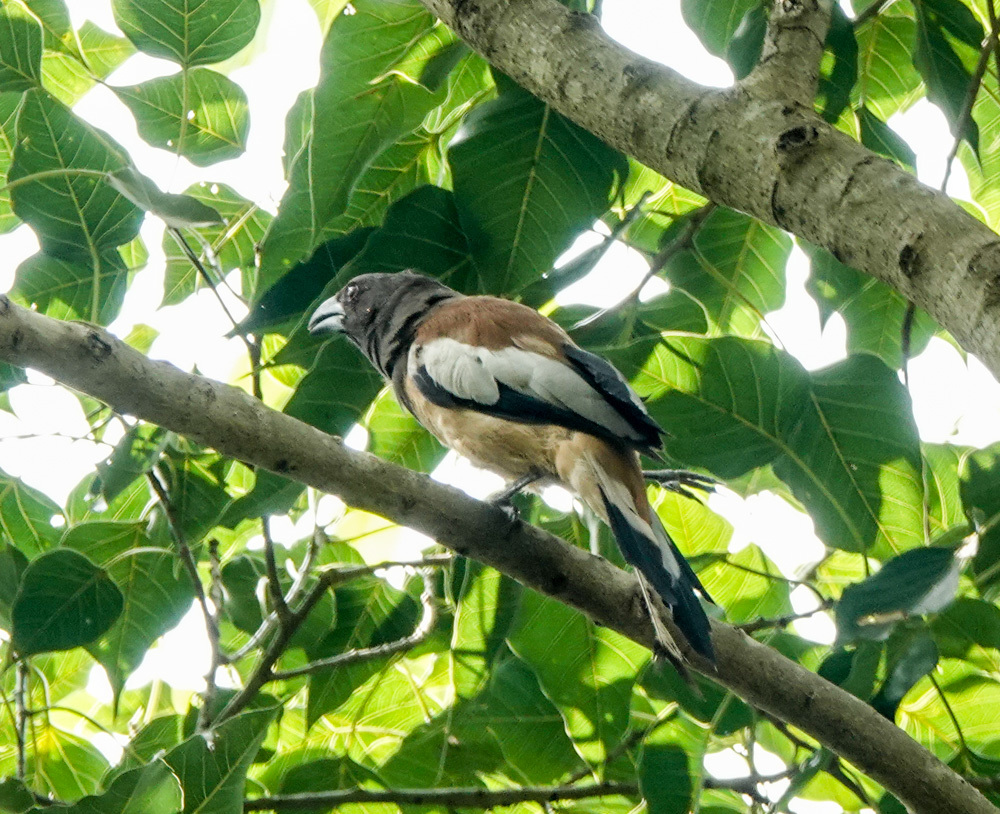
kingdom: Animalia
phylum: Chordata
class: Aves
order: Passeriformes
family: Corvidae
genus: Dendrocitta
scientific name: Dendrocitta vagabunda
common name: Rufous treepie
